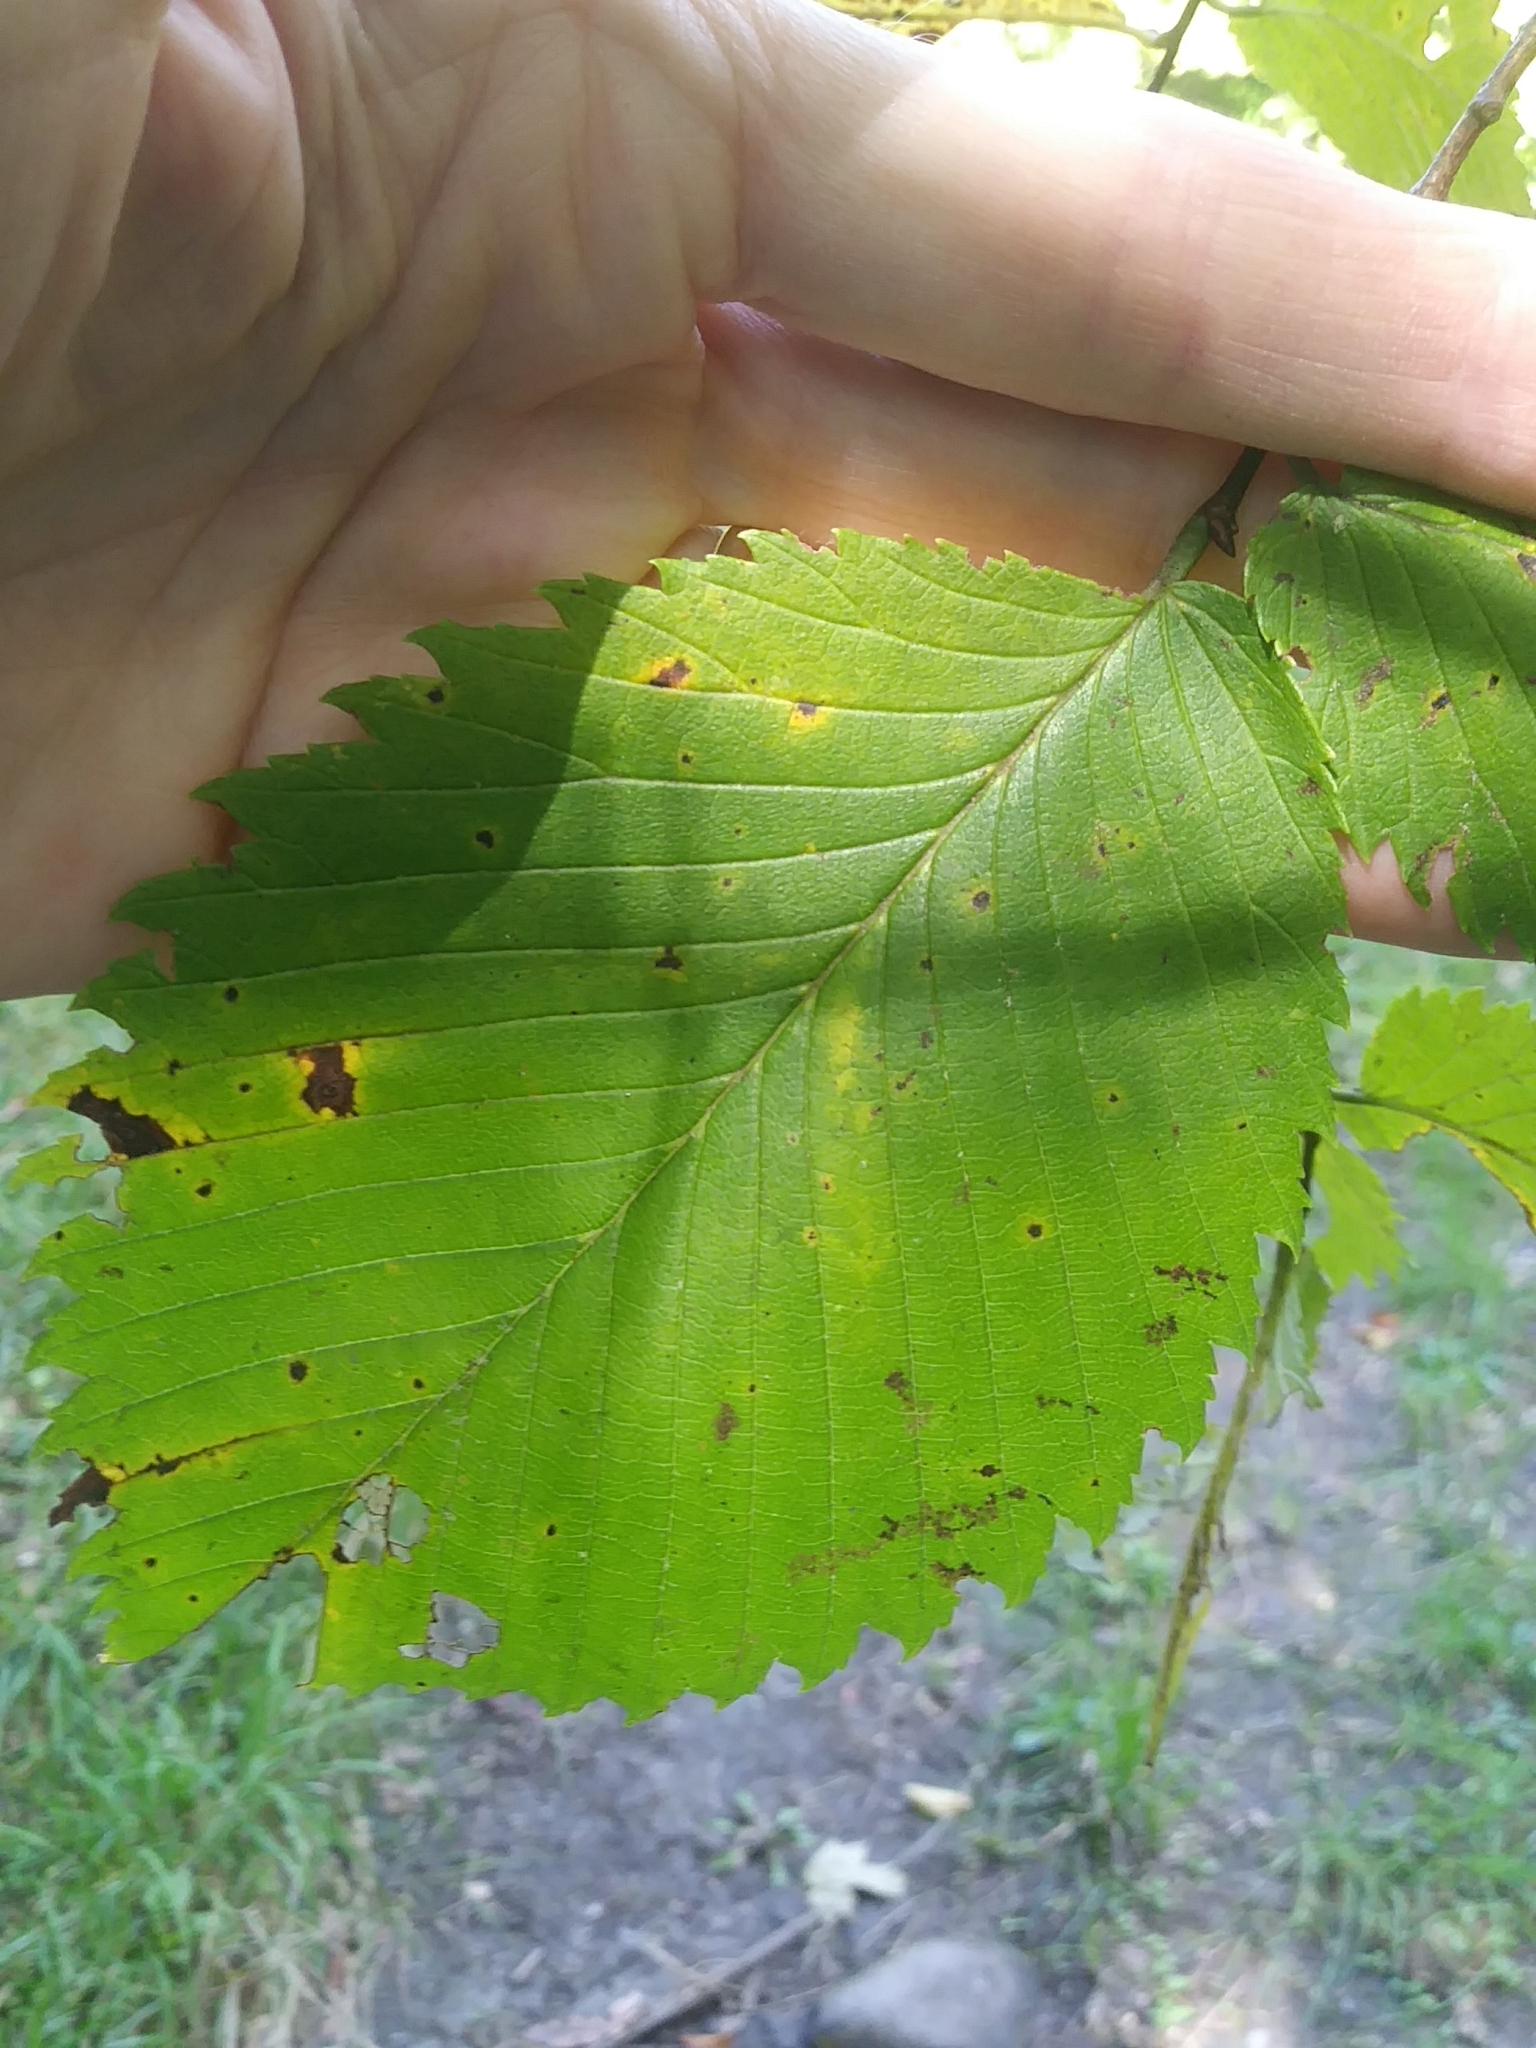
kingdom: Plantae
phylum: Tracheophyta
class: Magnoliopsida
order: Rosales
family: Ulmaceae
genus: Ulmus
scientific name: Ulmus americana
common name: American elm
